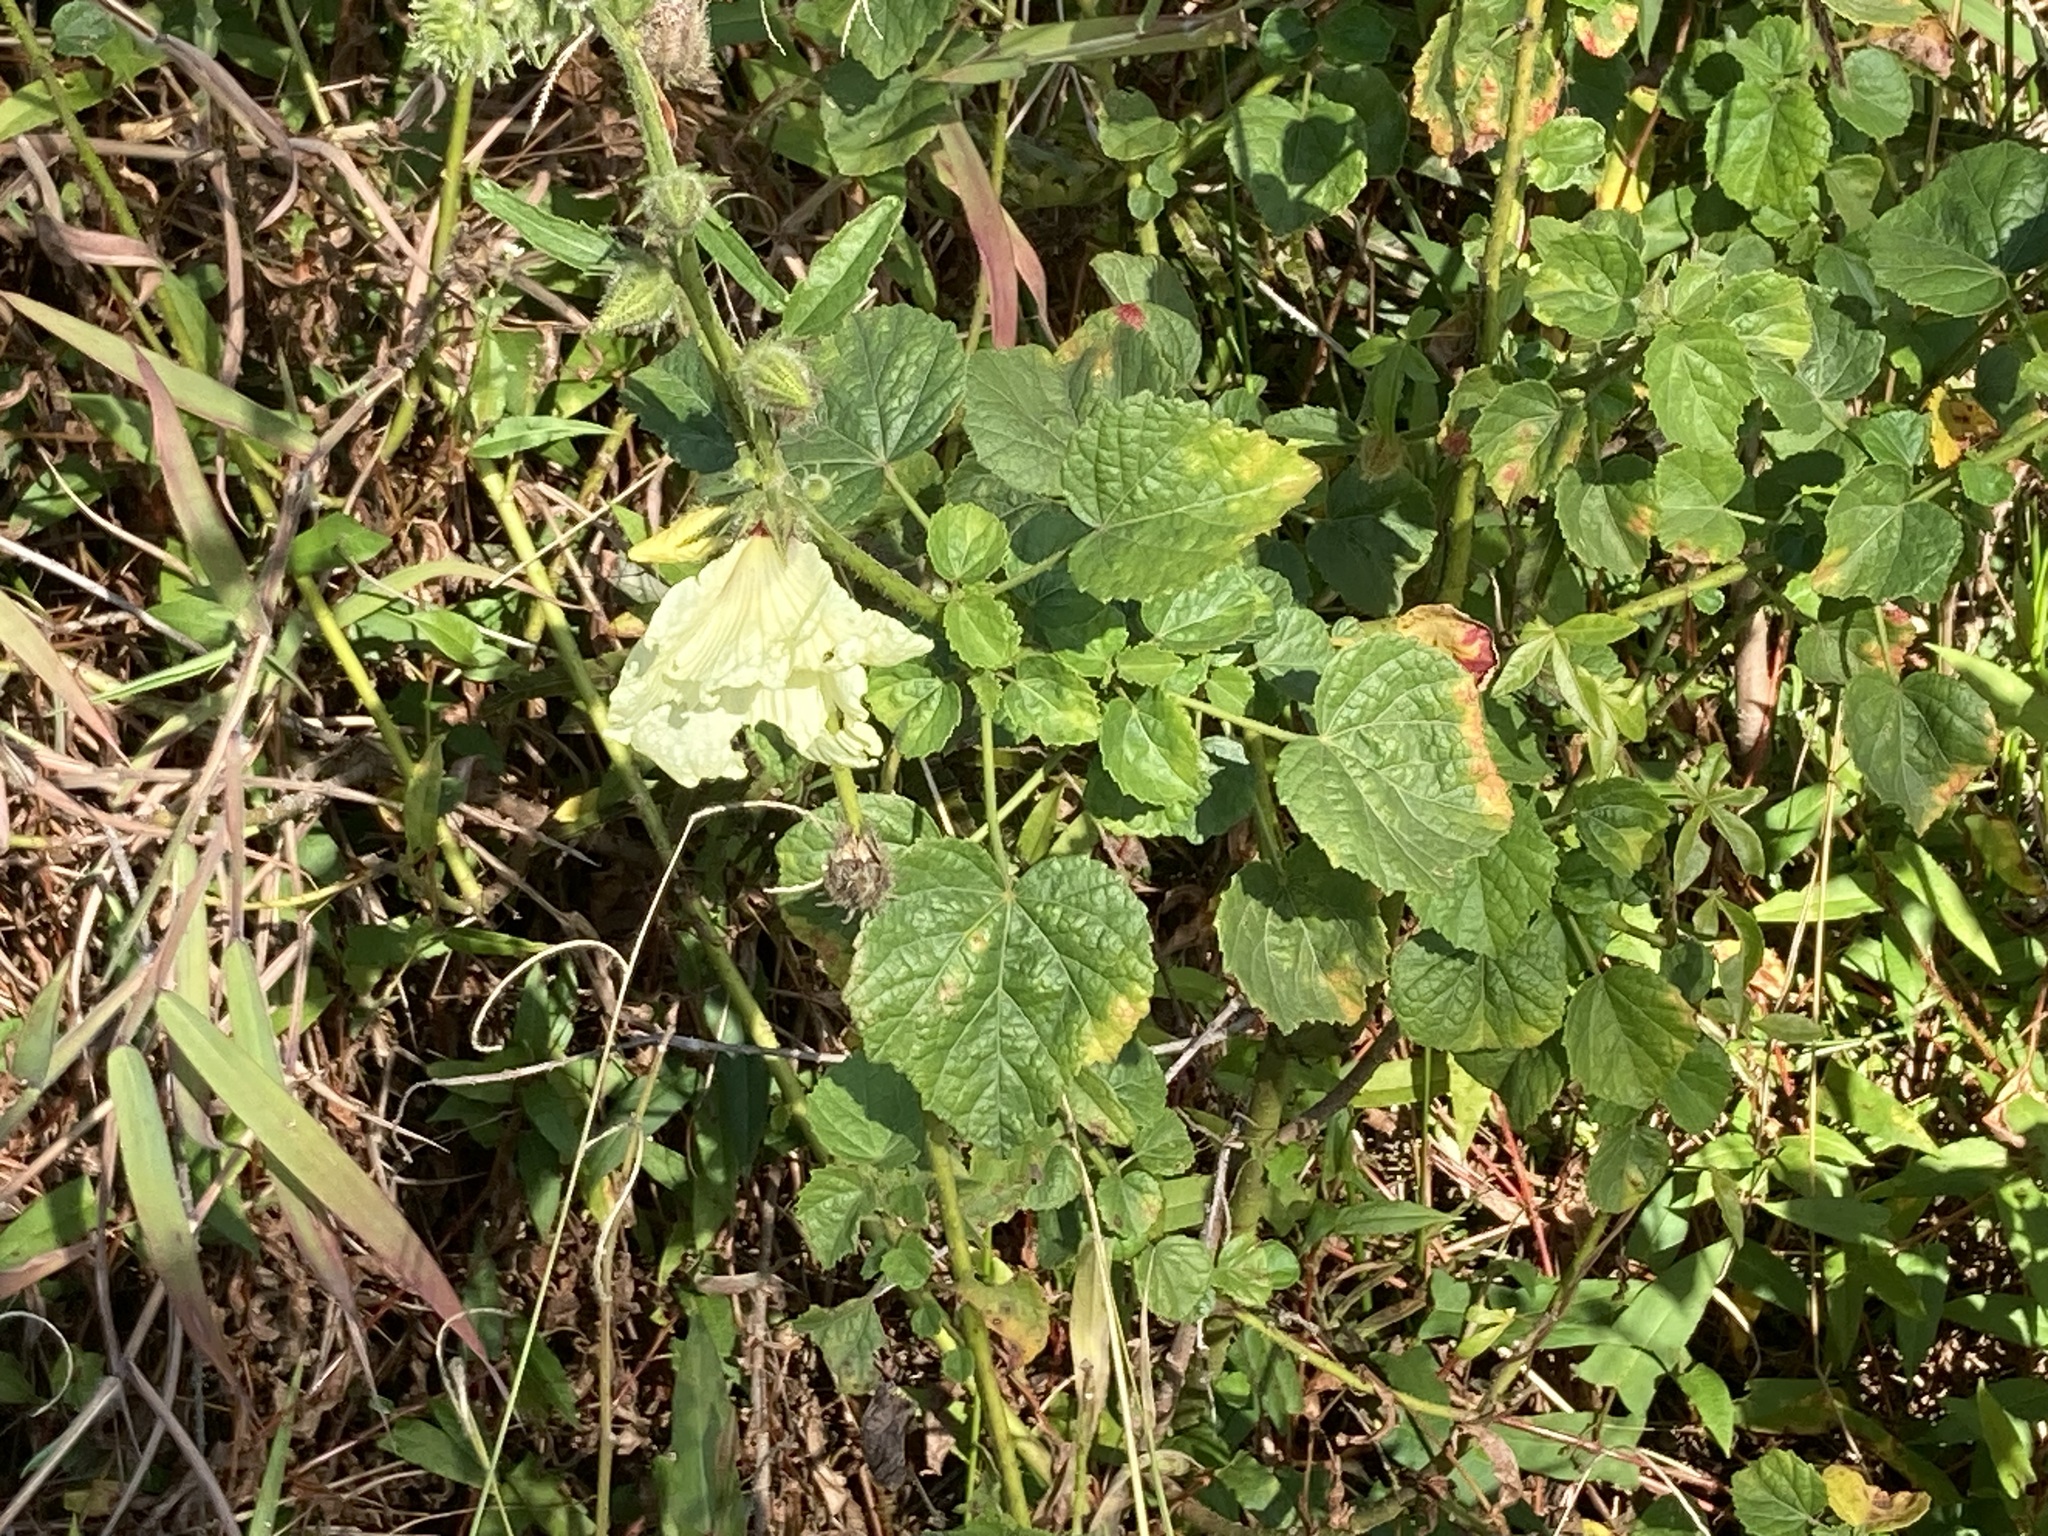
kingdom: Plantae
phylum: Tracheophyta
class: Magnoliopsida
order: Malvales
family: Malvaceae
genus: Hibiscus
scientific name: Hibiscus diversifolius
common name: Cape hibiscus
